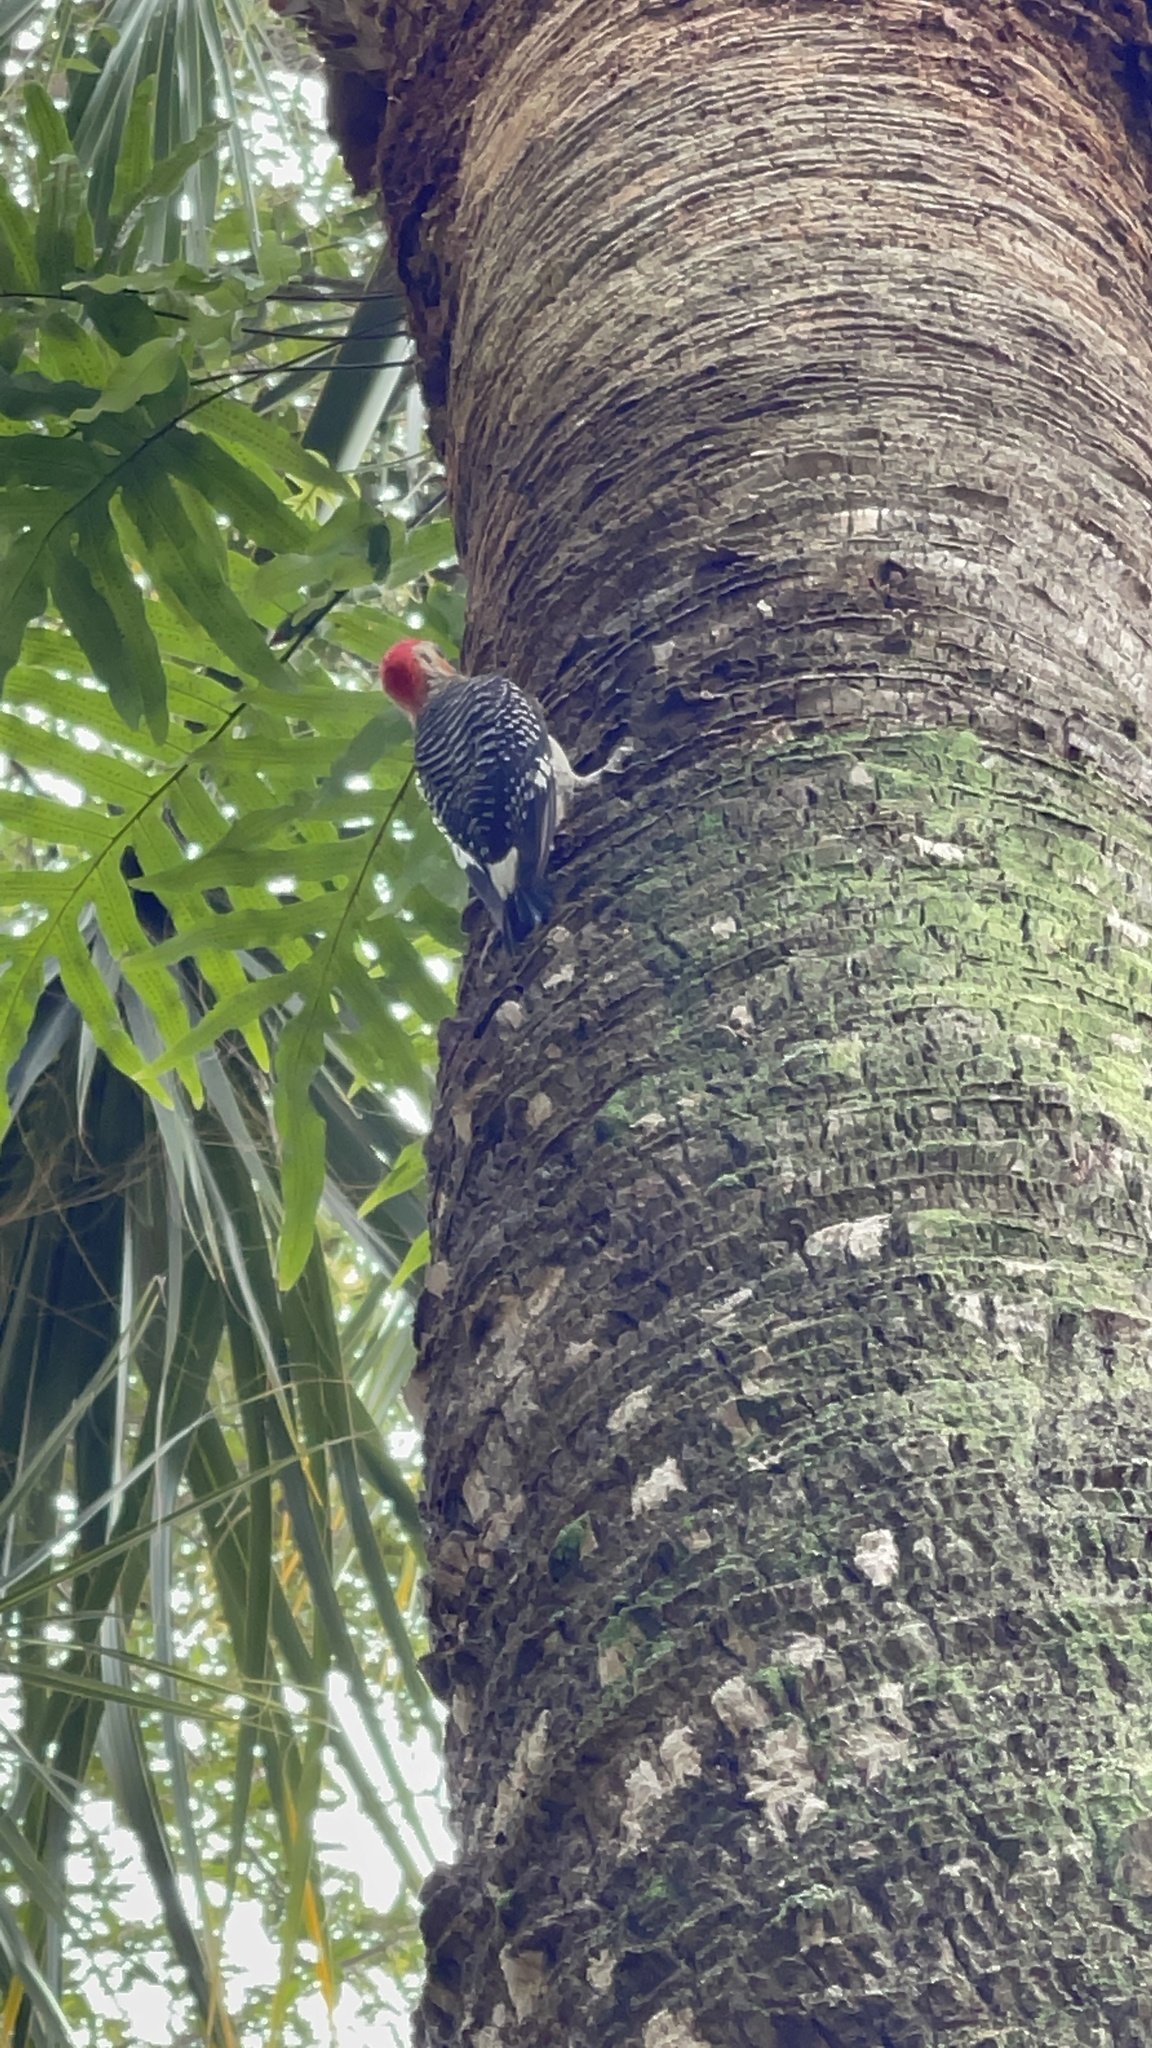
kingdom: Animalia
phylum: Chordata
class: Aves
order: Piciformes
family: Picidae
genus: Melanerpes
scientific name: Melanerpes carolinus
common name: Red-bellied woodpecker
